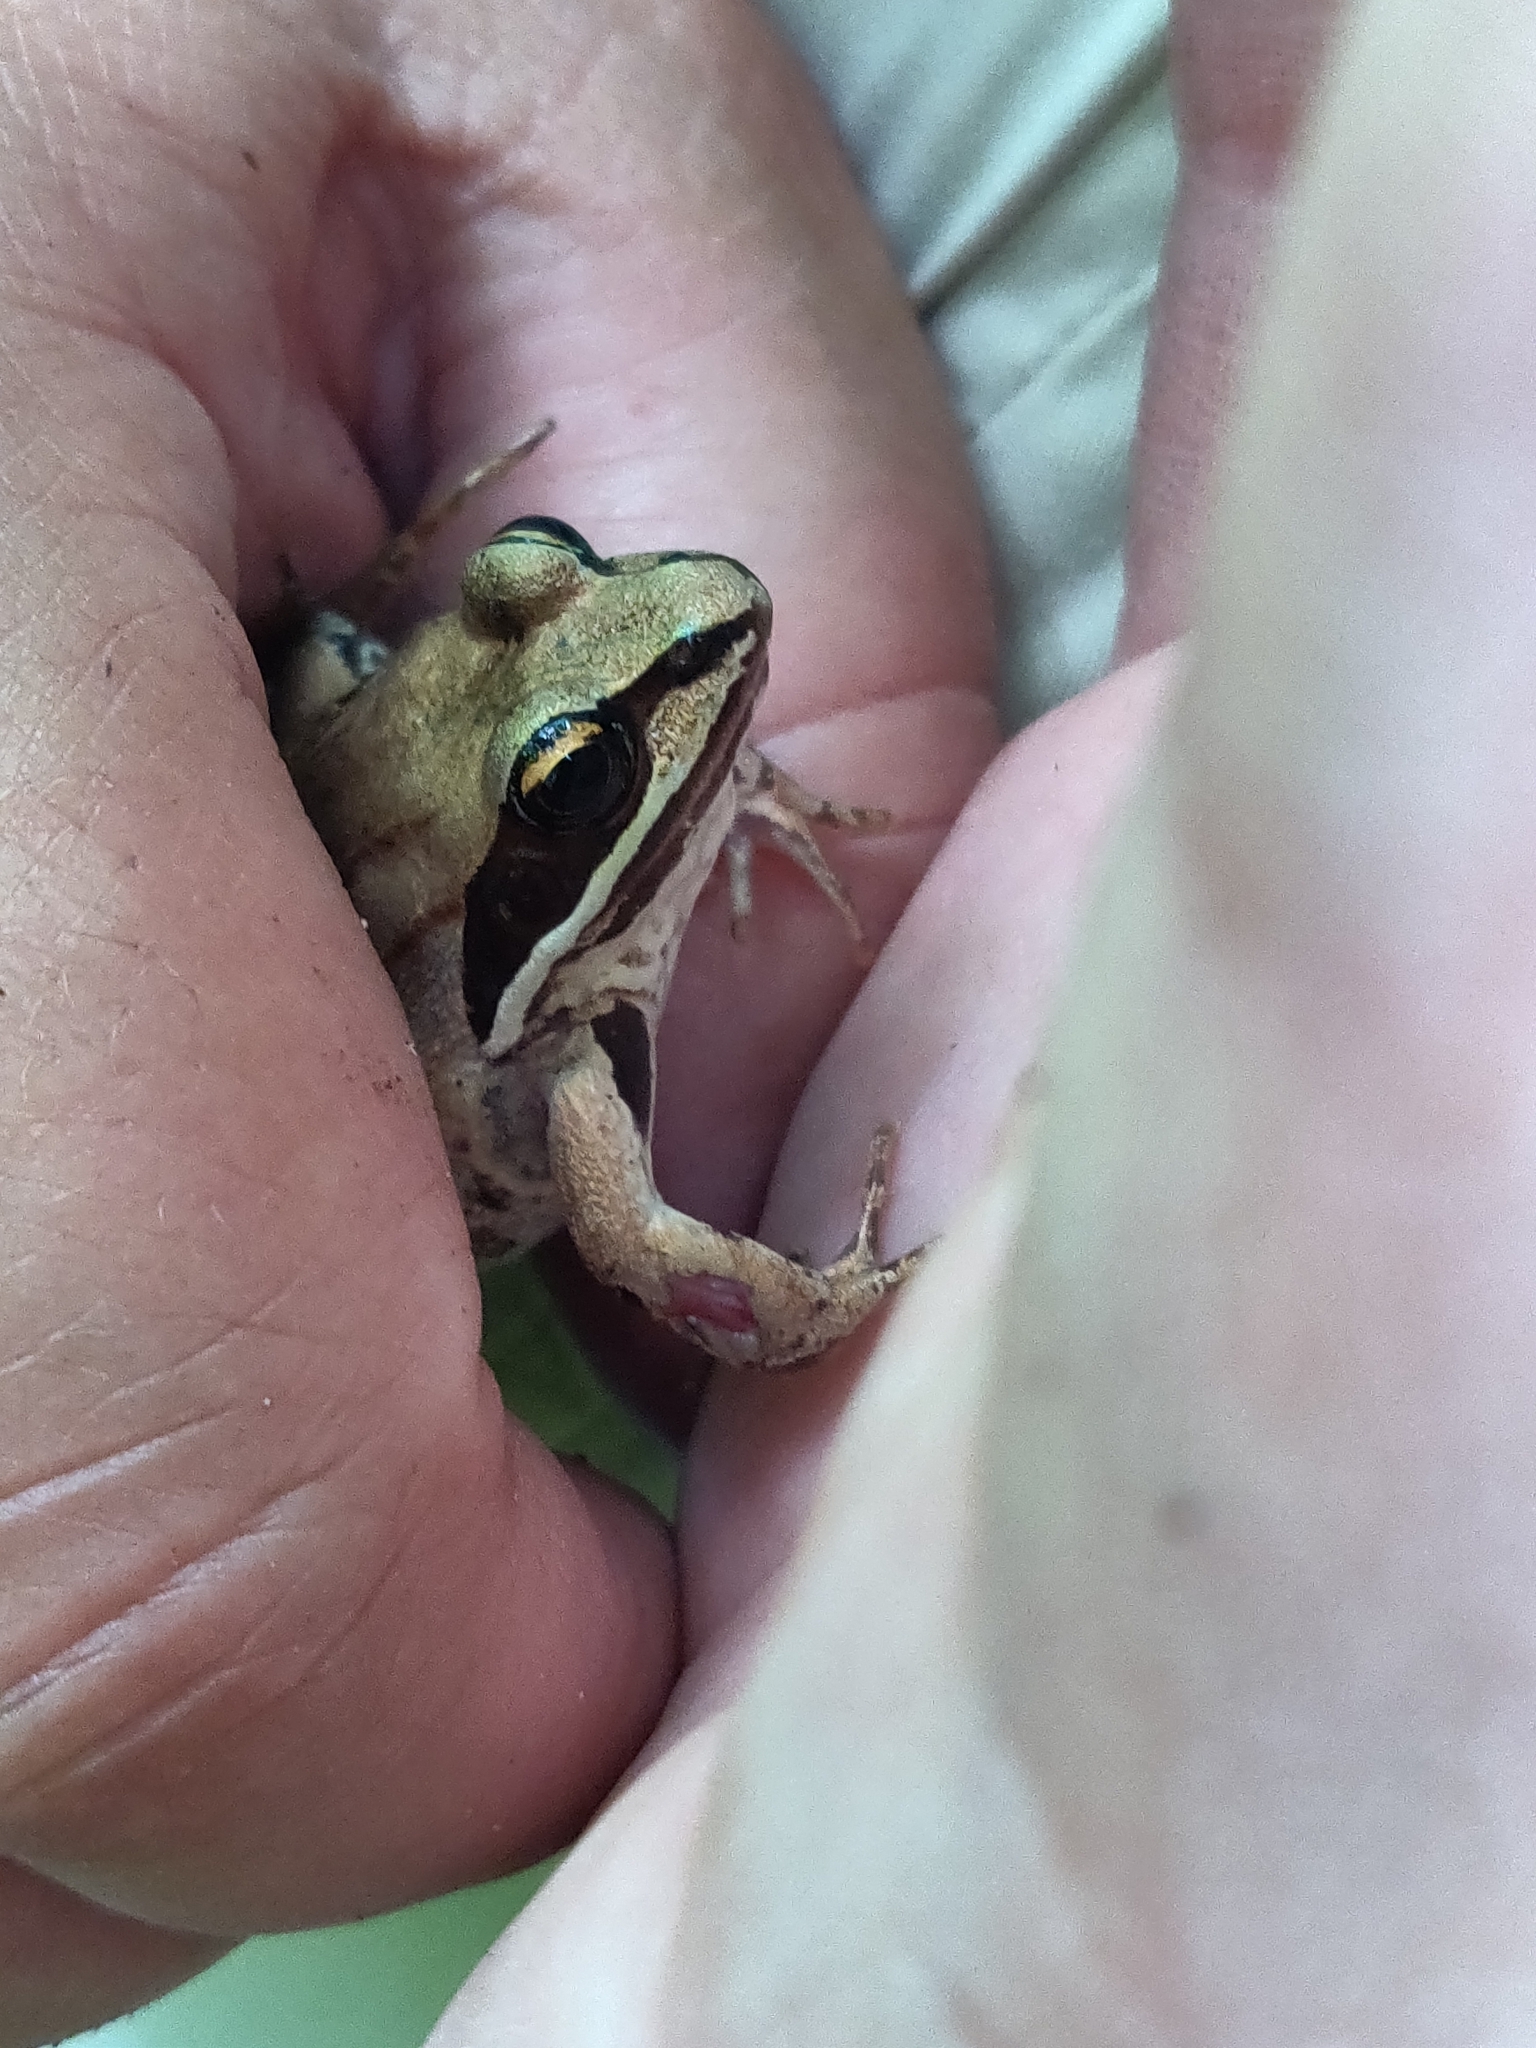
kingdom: Animalia
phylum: Chordata
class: Amphibia
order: Anura
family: Ranidae
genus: Lithobates
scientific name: Lithobates sylvaticus
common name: Wood frog
